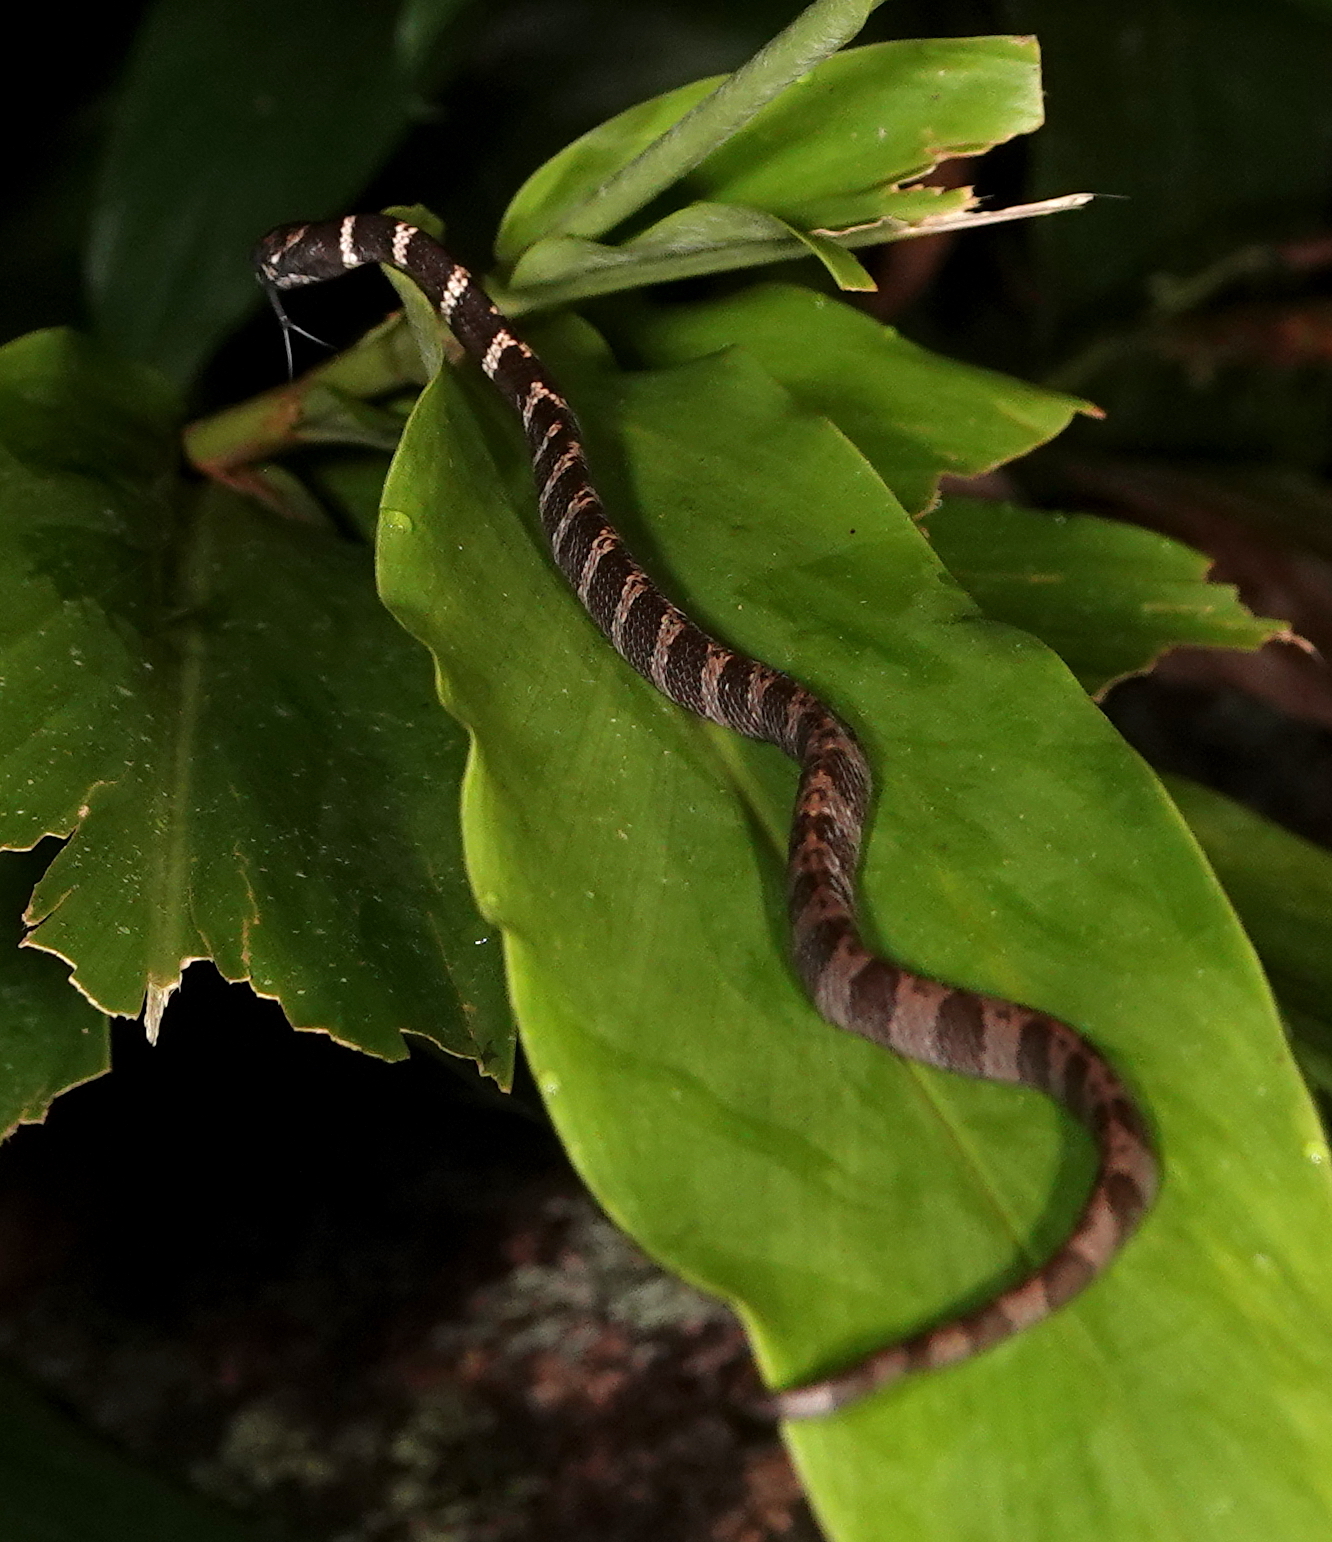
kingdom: Animalia
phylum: Chordata
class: Squamata
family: Colubridae
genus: Dipsas
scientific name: Dipsas sanctijoannis
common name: Tropical snail-eater
